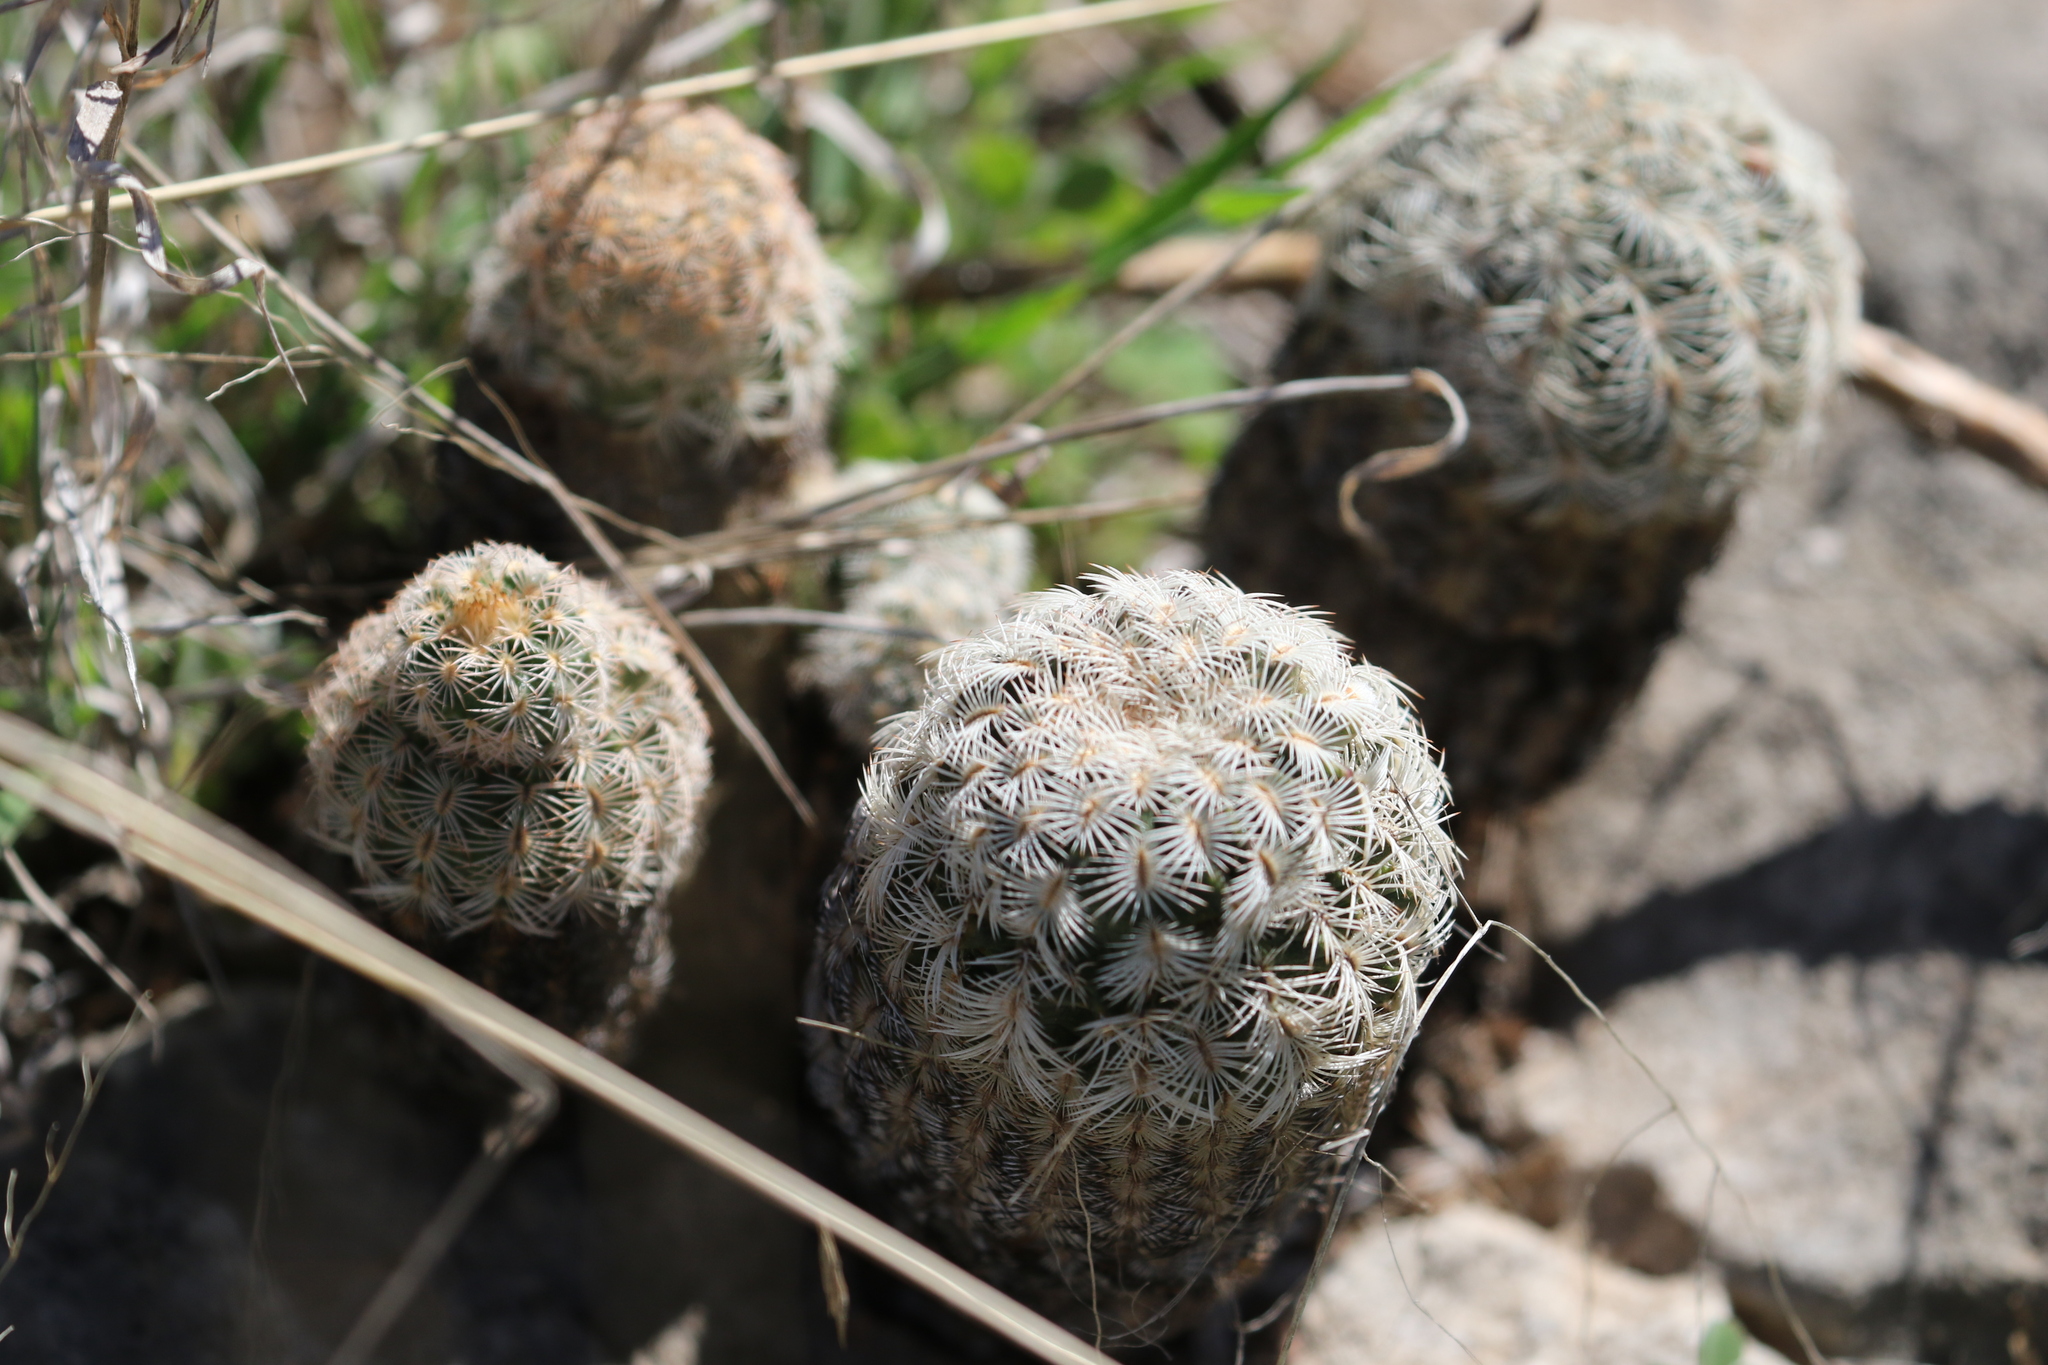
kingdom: Plantae
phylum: Tracheophyta
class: Magnoliopsida
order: Caryophyllales
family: Cactaceae
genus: Echinocereus
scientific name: Echinocereus reichenbachii
